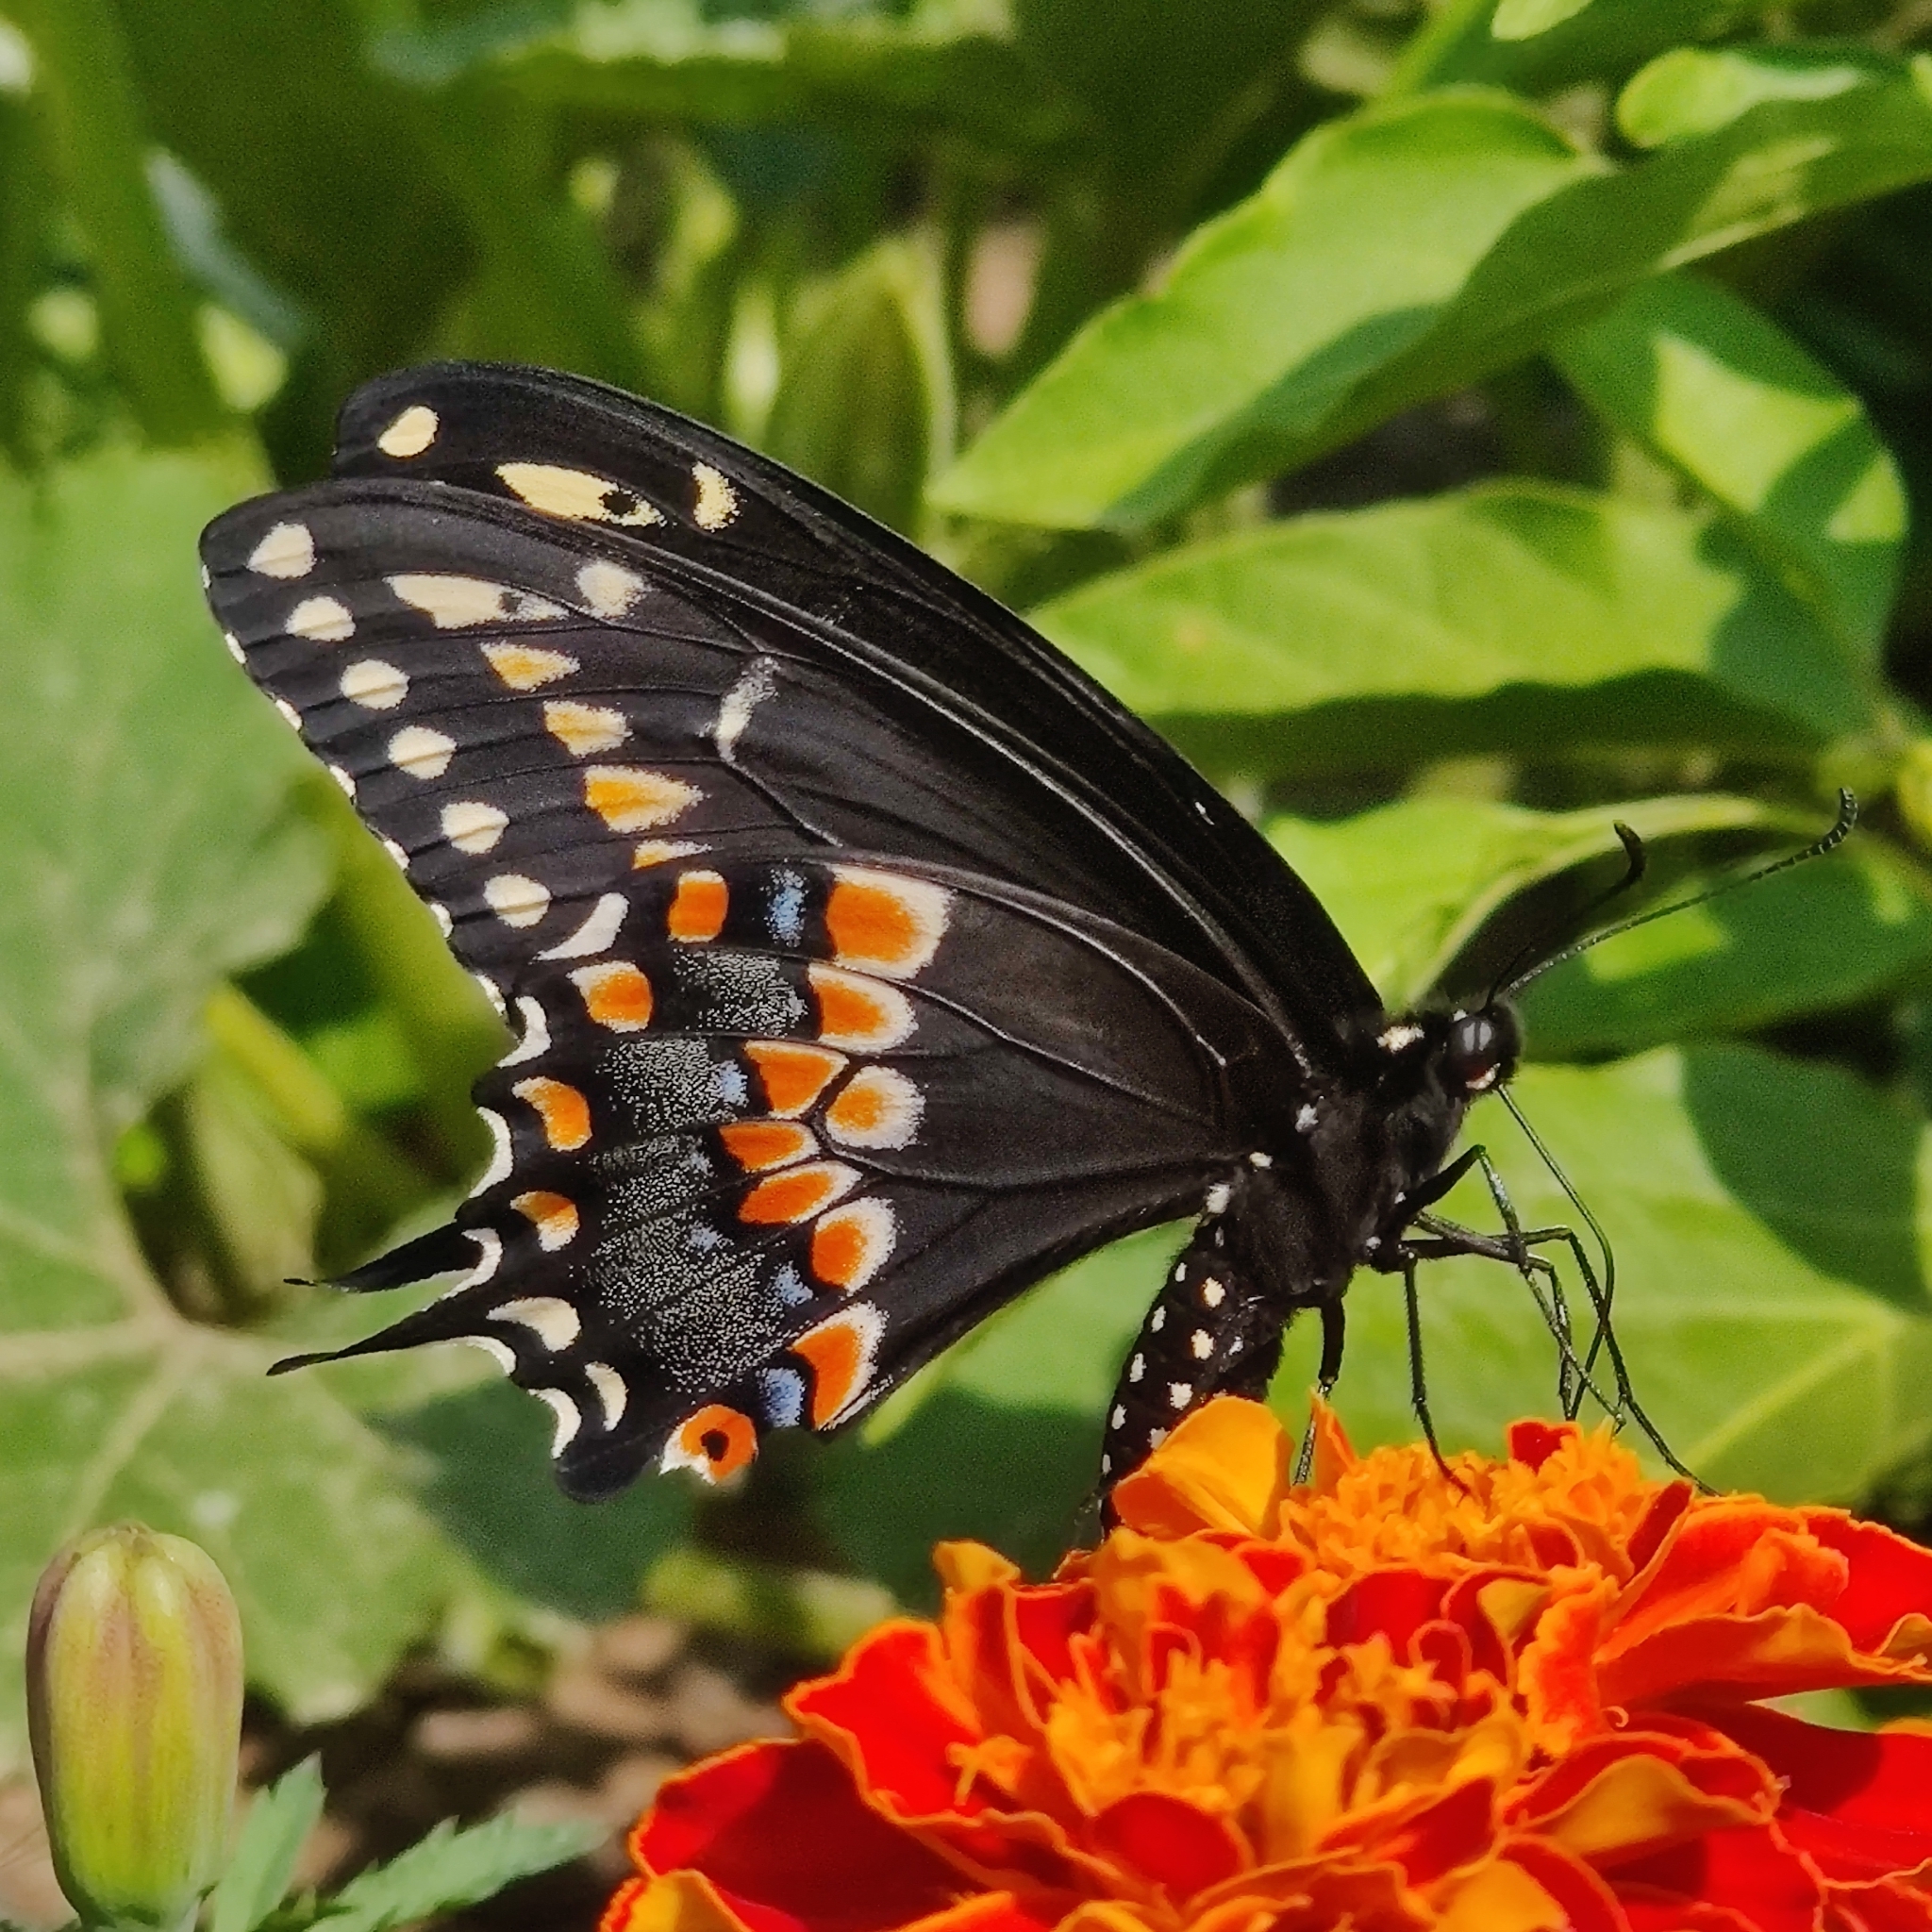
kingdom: Animalia
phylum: Arthropoda
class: Insecta
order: Lepidoptera
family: Papilionidae
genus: Papilio
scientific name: Papilio polyxenes
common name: Black swallowtail
